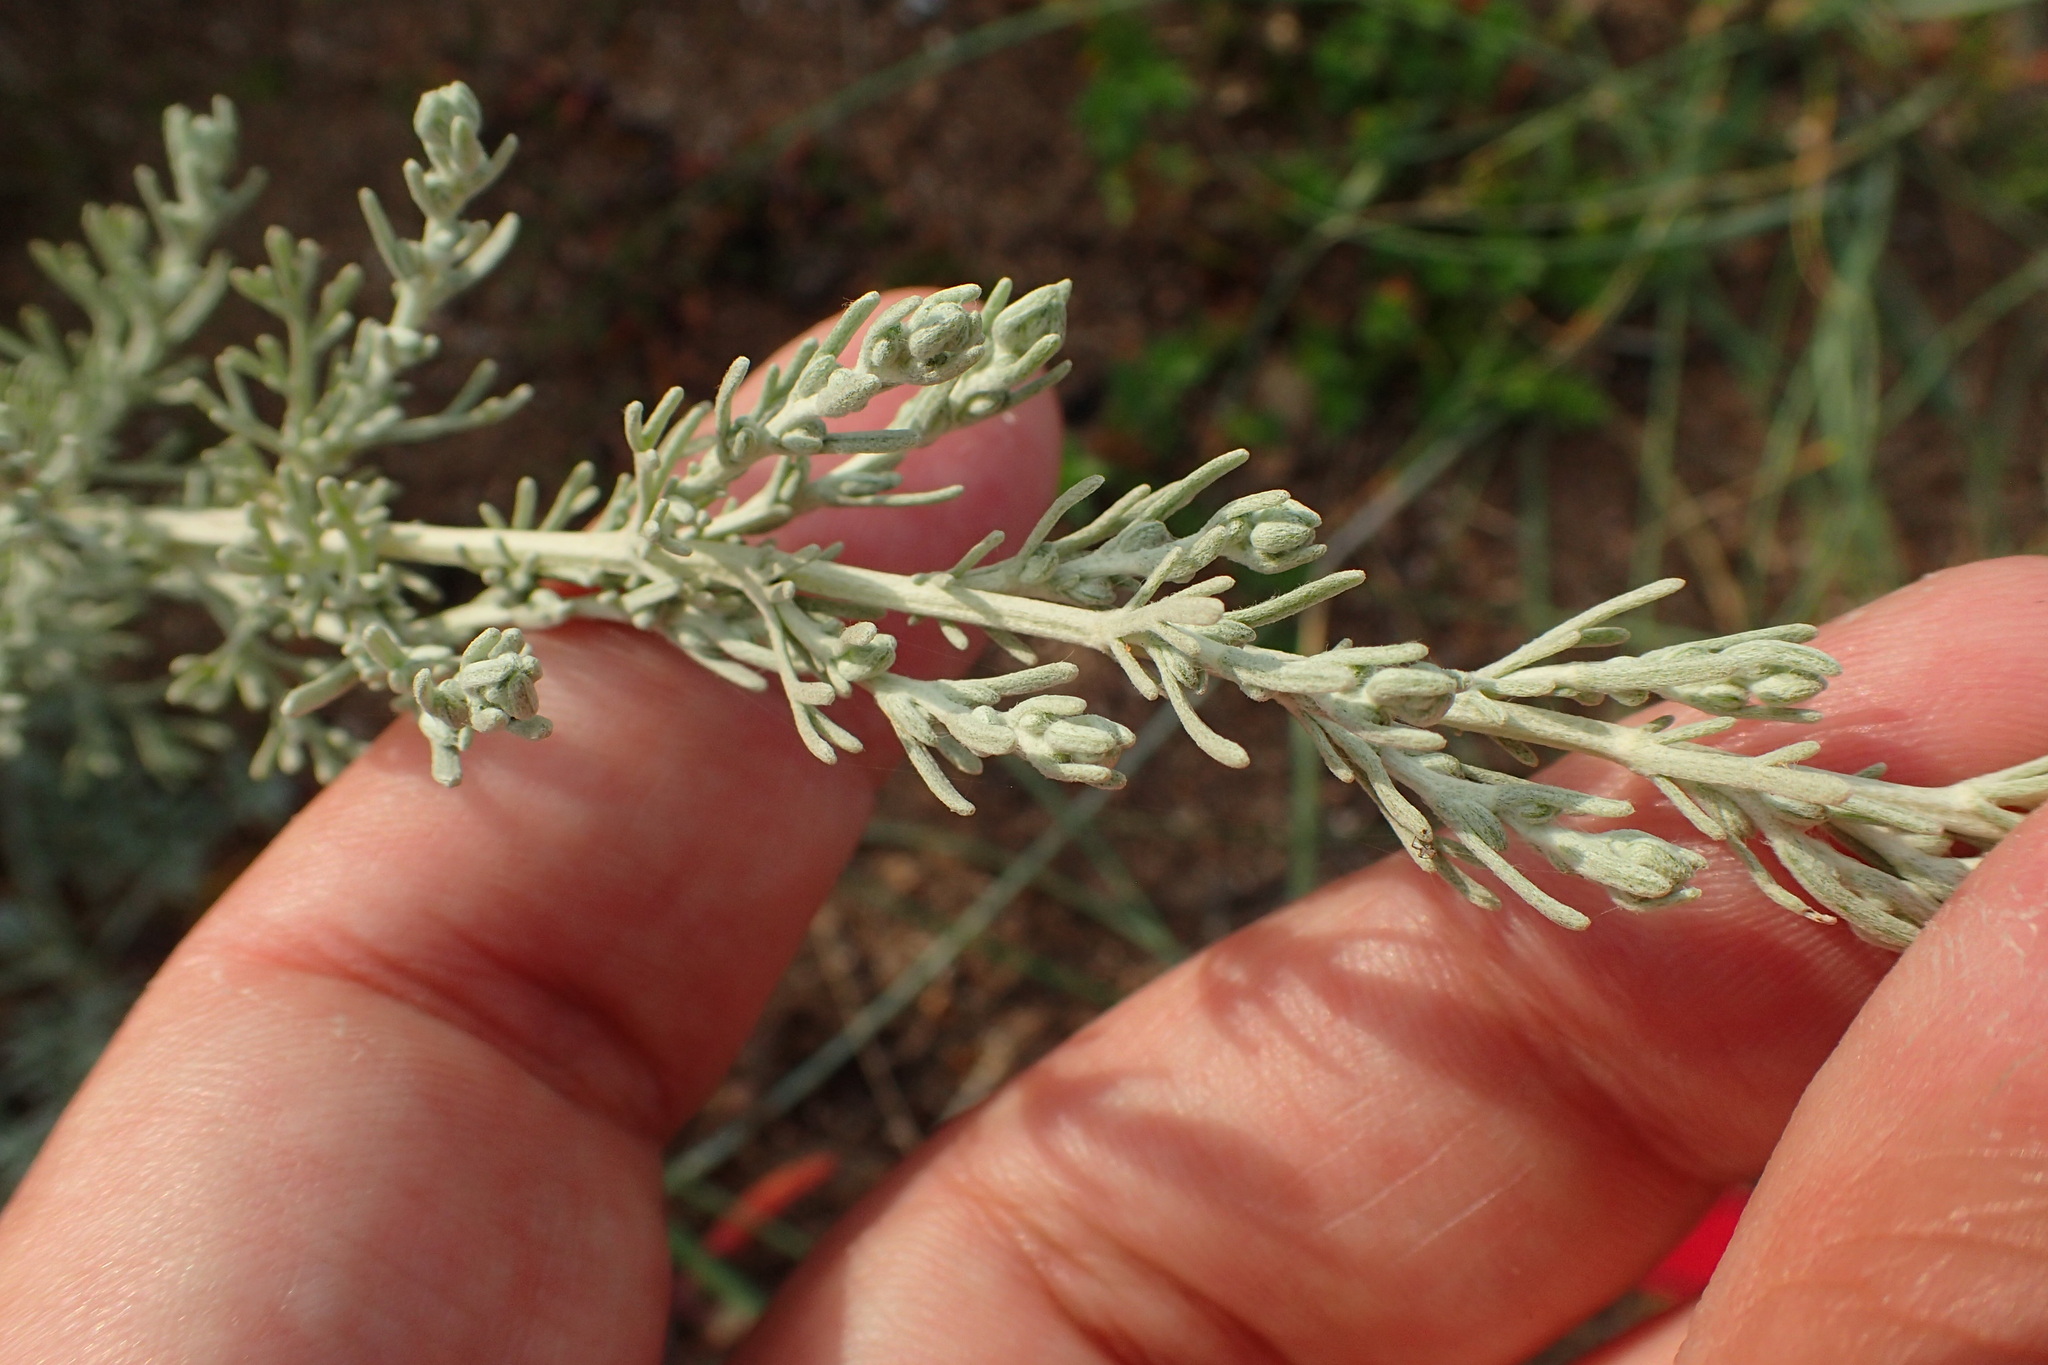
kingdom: Plantae
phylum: Tracheophyta
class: Magnoliopsida
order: Asterales
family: Asteraceae
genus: Artemisia
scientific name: Artemisia maritima
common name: Wormseed
